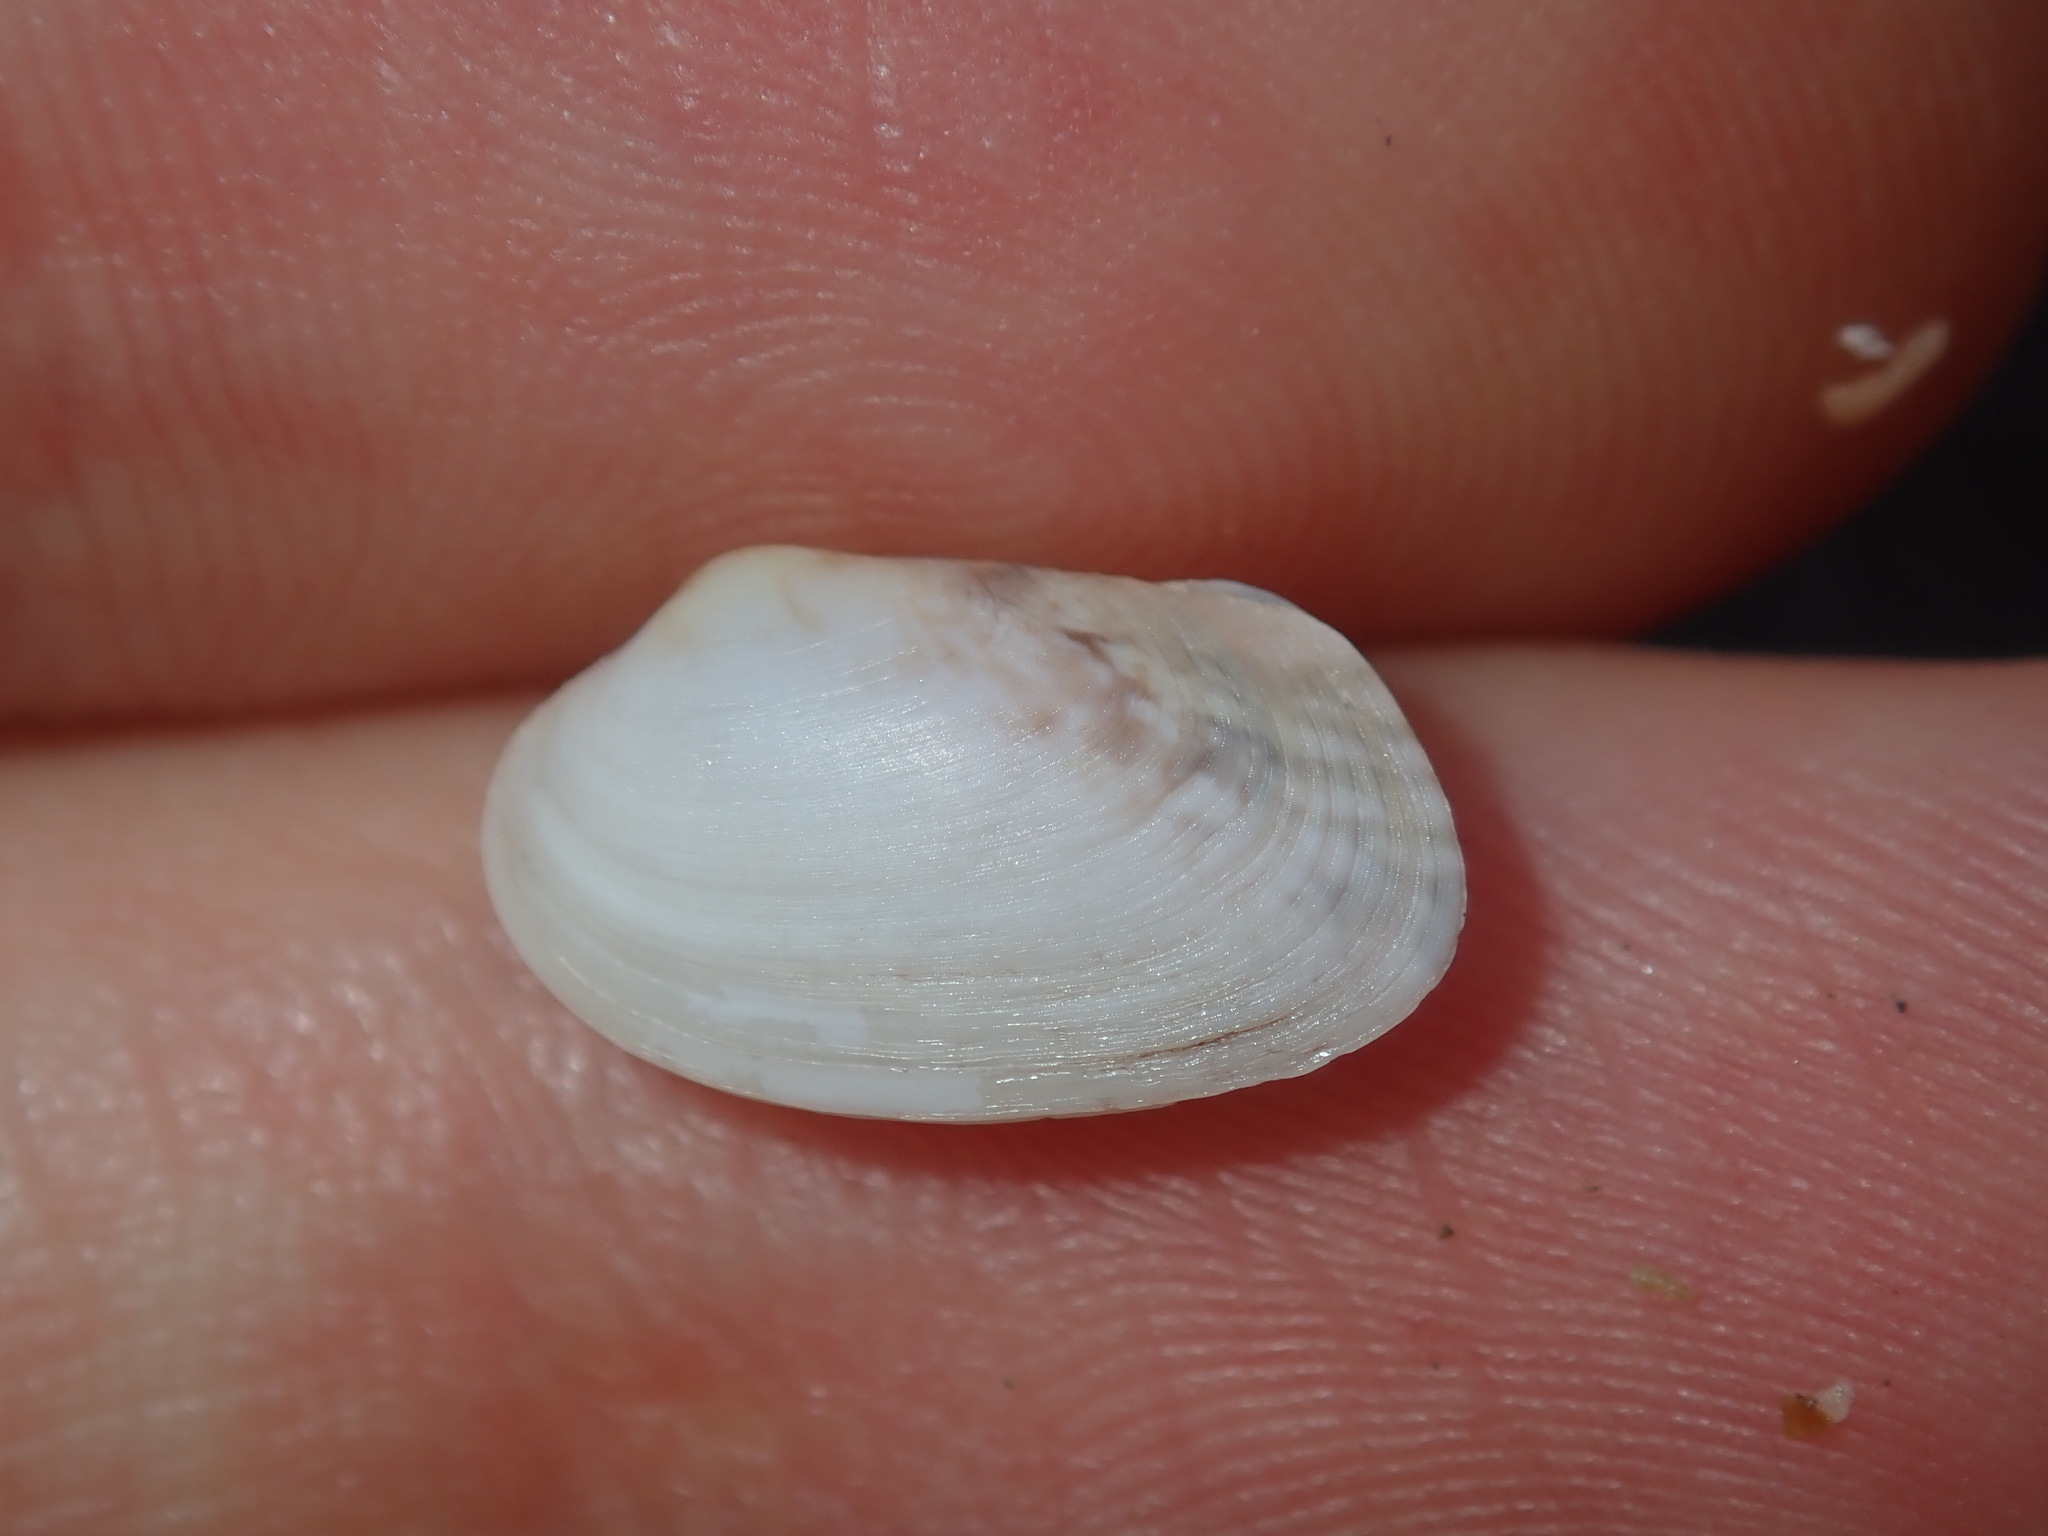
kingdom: Animalia
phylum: Mollusca
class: Bivalvia
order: Venerida
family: Veneridae
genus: Venerupis
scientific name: Venerupis anomala
